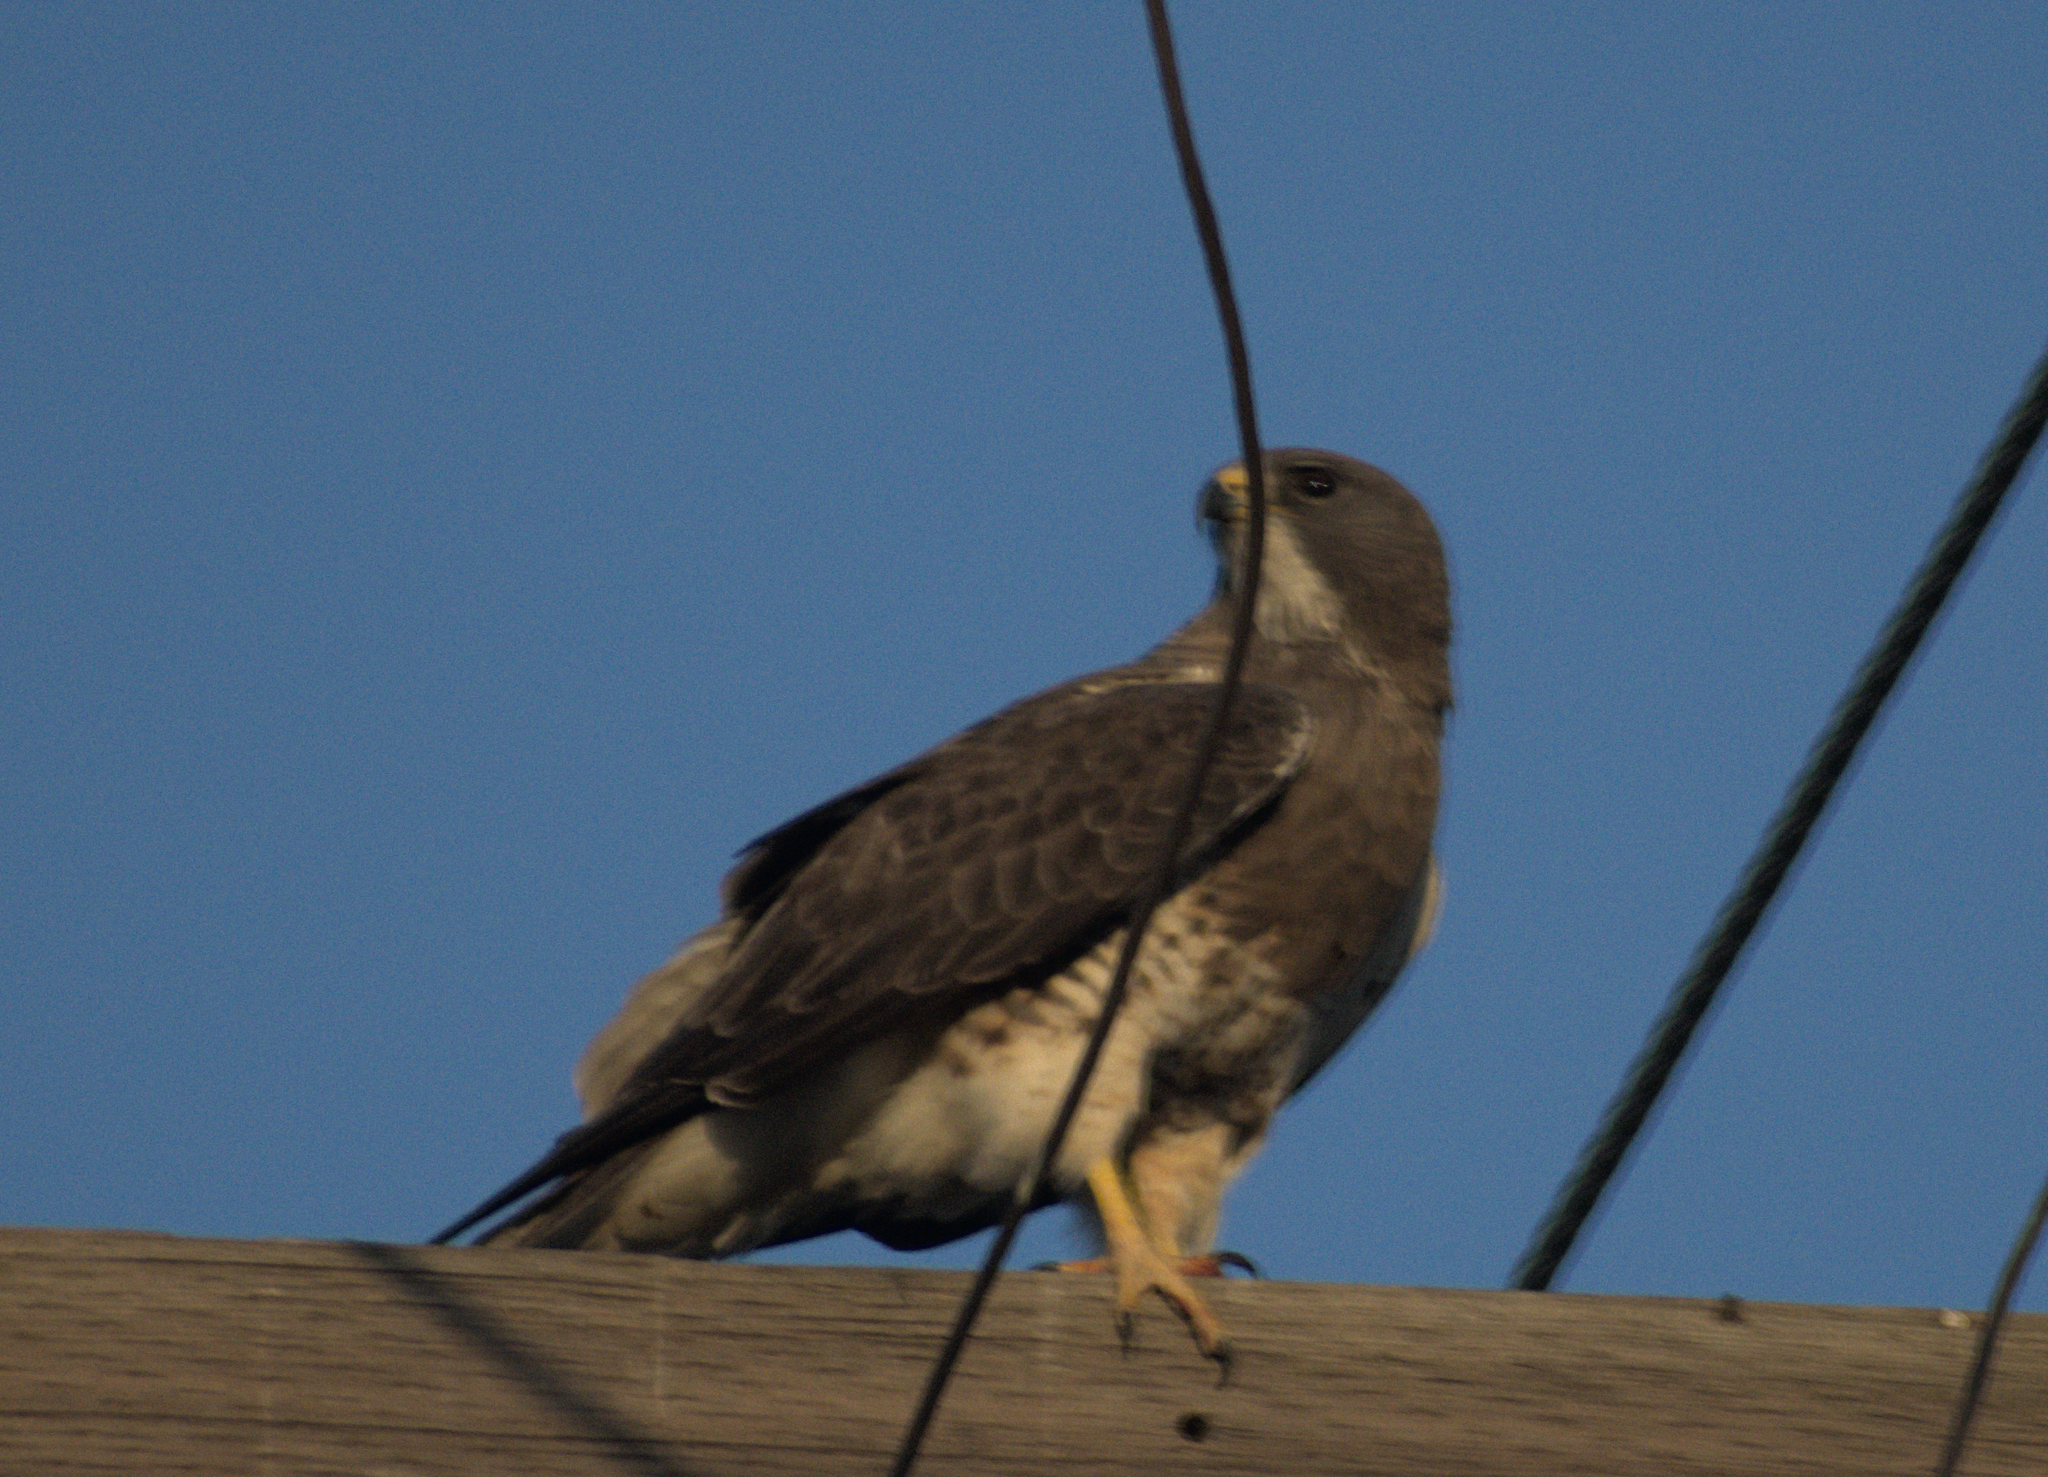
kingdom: Animalia
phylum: Chordata
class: Aves
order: Accipitriformes
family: Accipitridae
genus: Buteo
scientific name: Buteo swainsoni
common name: Swainson's hawk
